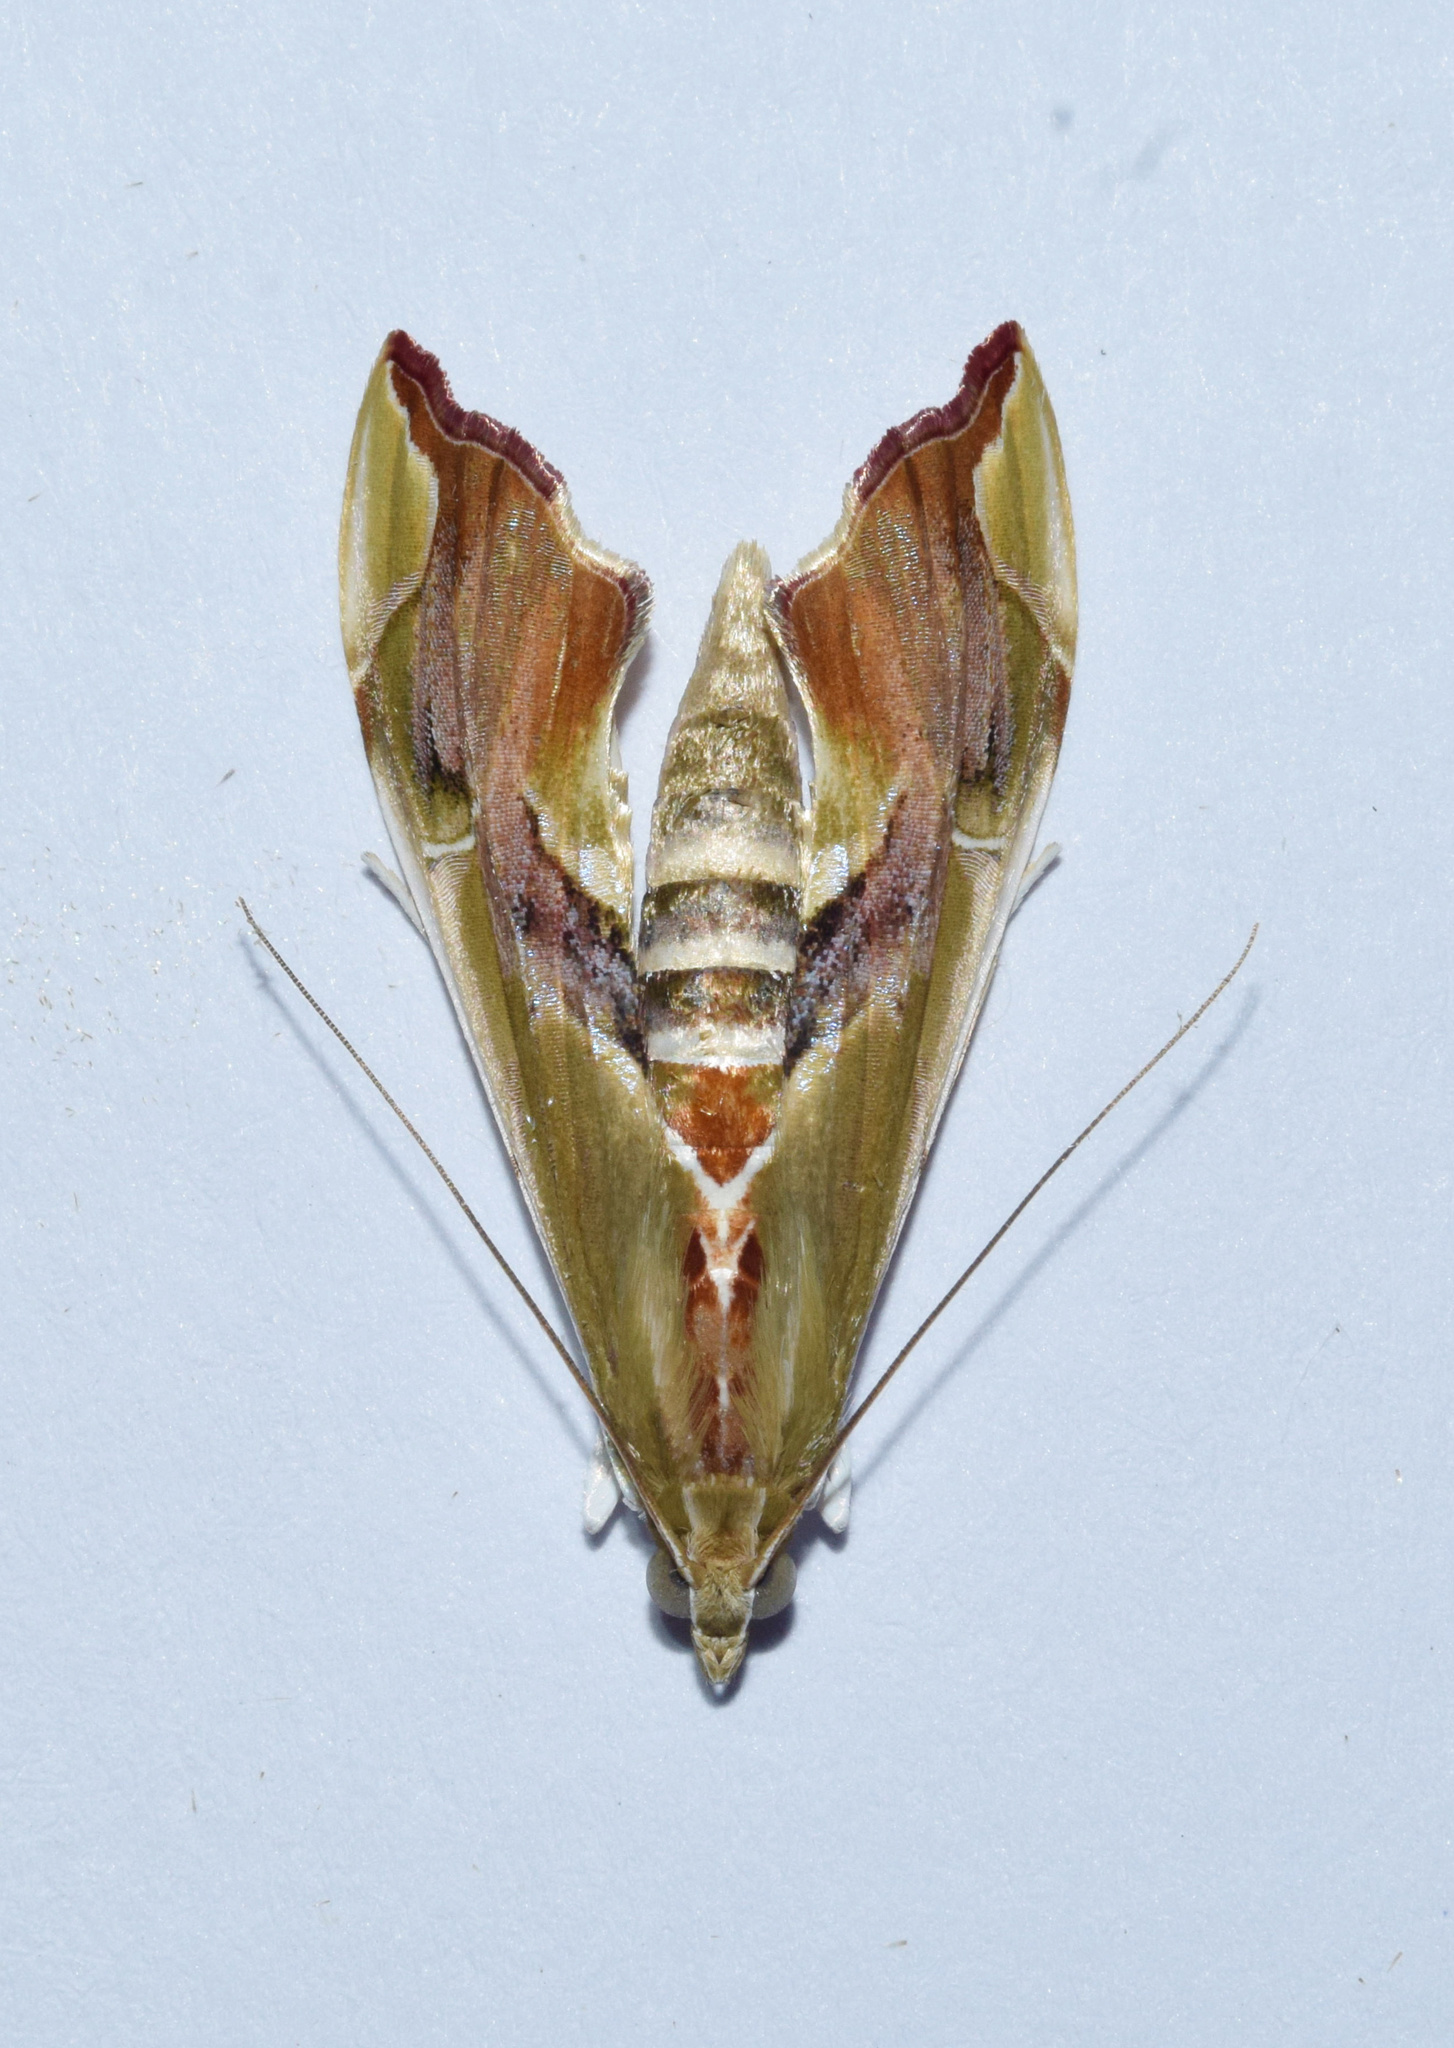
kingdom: Animalia
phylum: Arthropoda
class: Insecta
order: Lepidoptera
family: Crambidae
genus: Agathodes
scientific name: Agathodes musivalis
